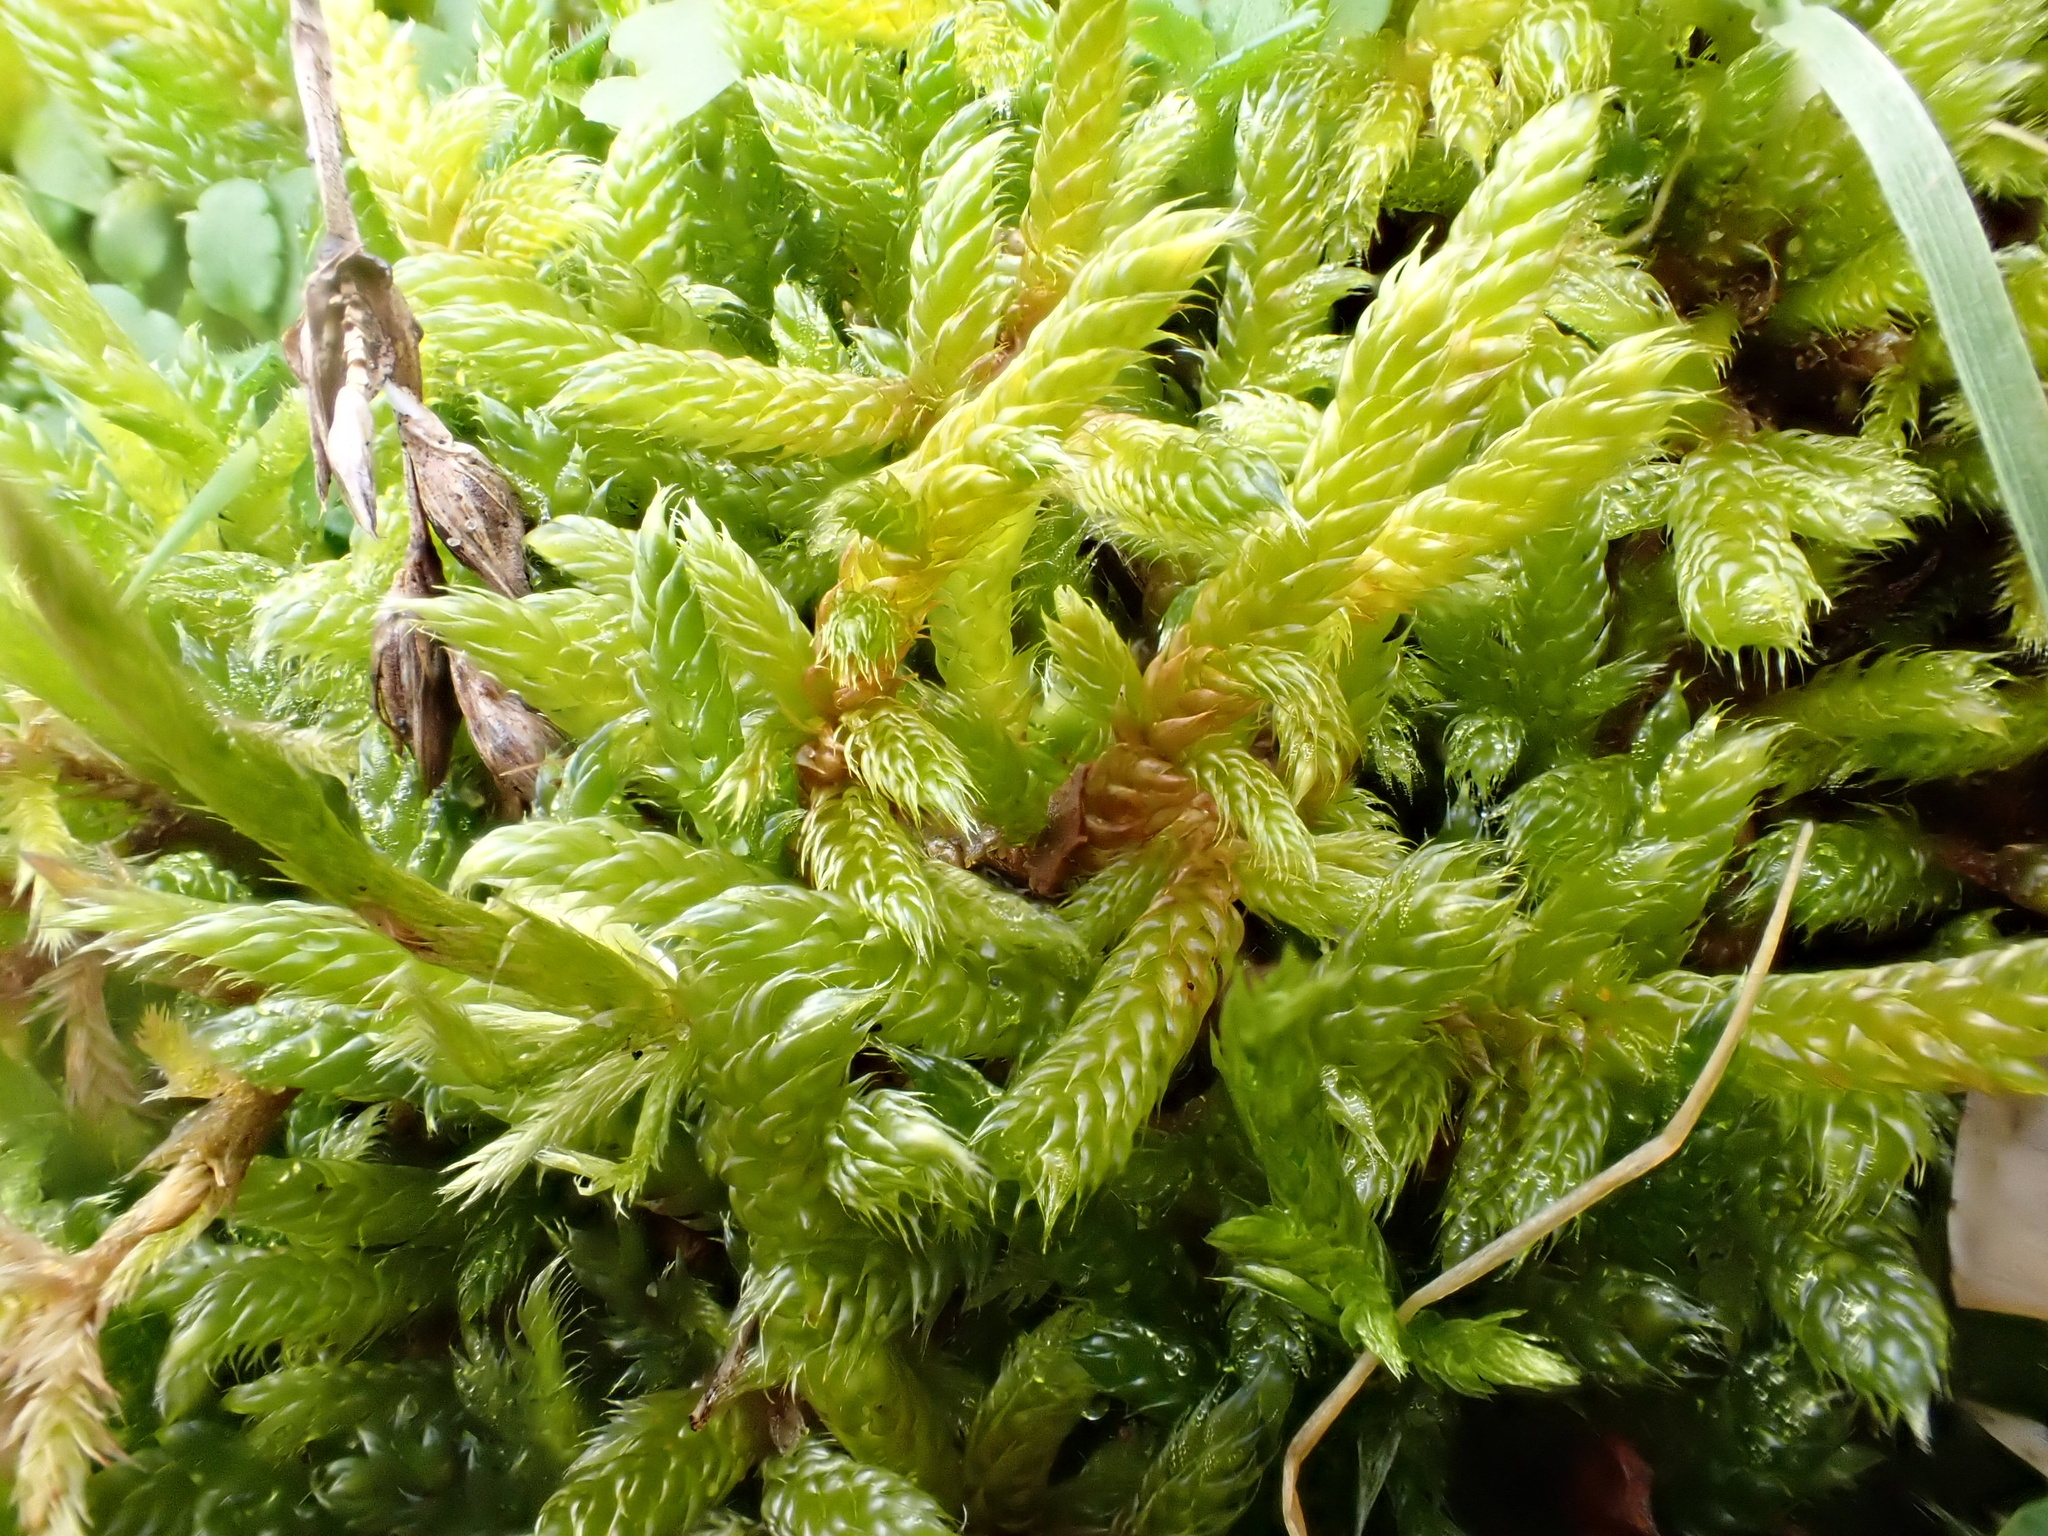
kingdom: Plantae
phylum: Bryophyta
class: Bryopsida
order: Hypnales
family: Hypnaceae
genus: Hypnum
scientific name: Hypnum cupressiforme
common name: Cypress-leaved plait-moss
